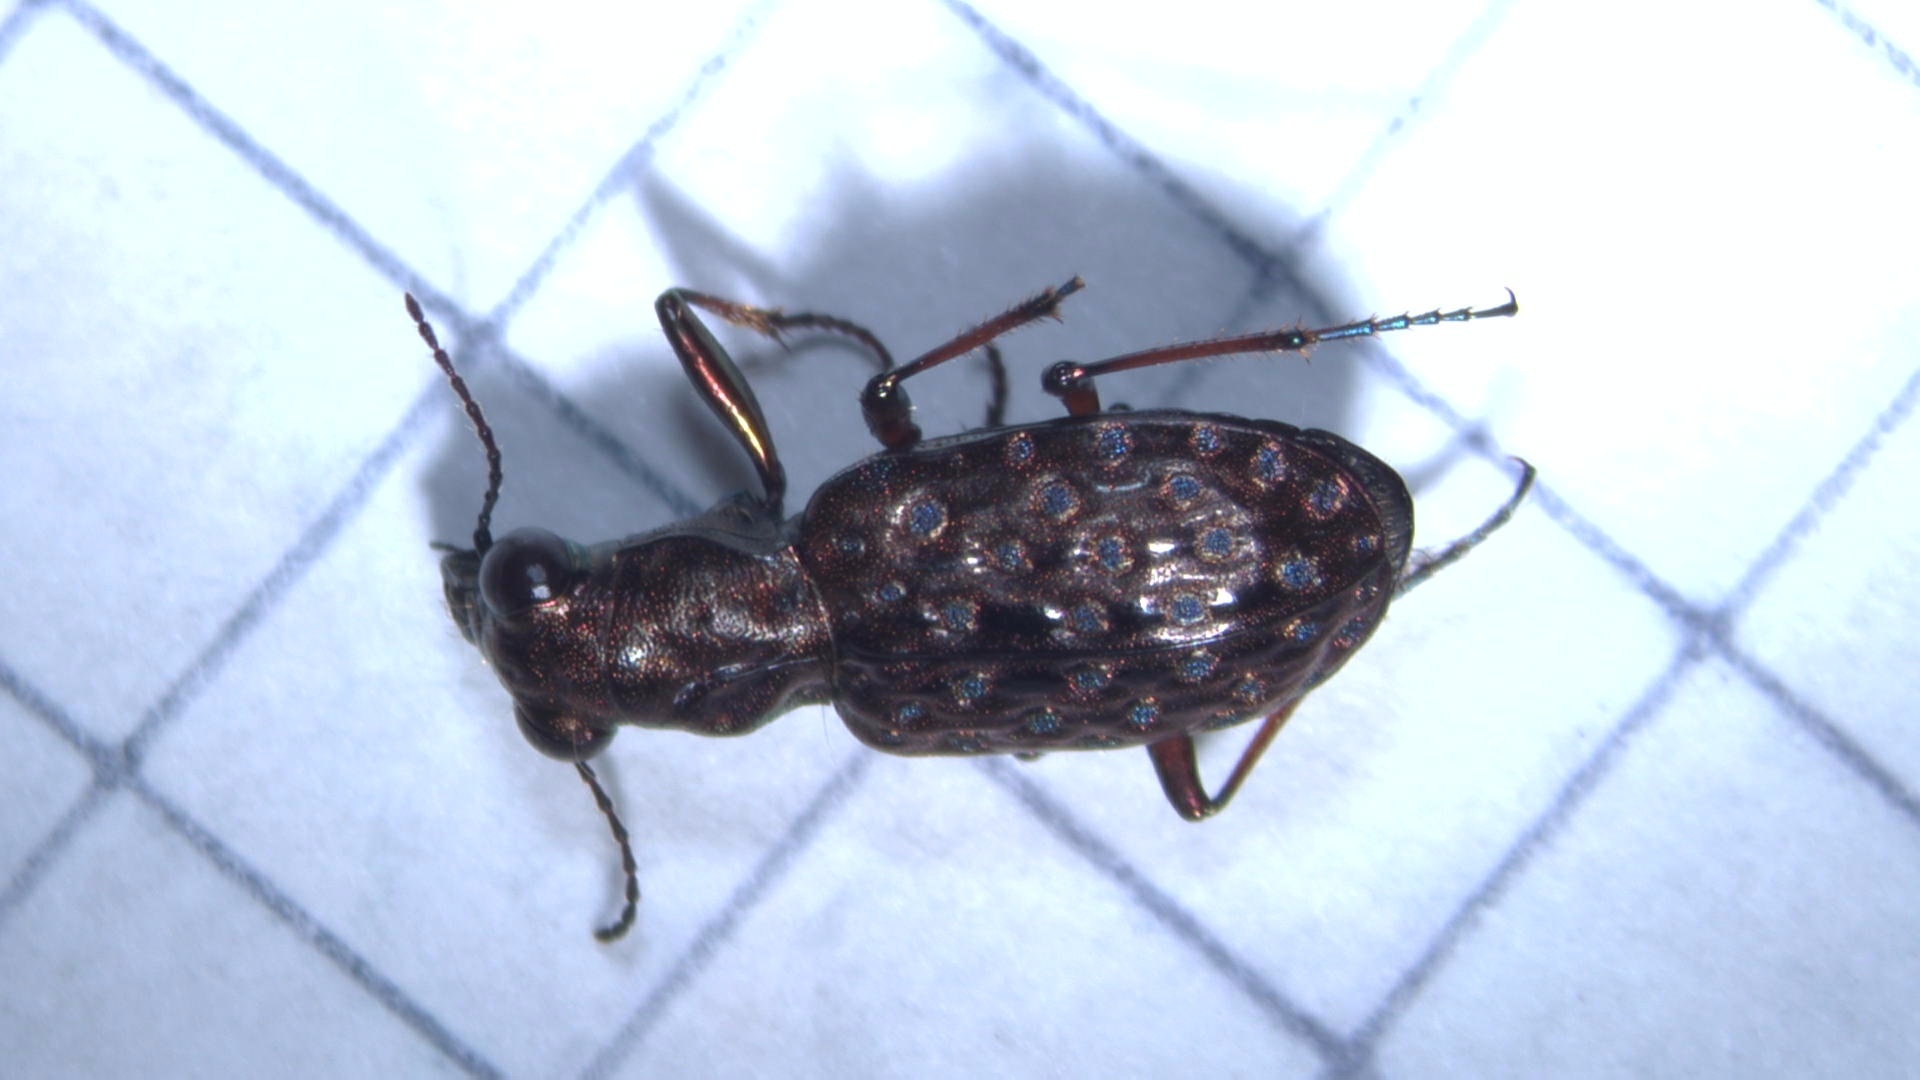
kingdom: Animalia
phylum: Arthropoda
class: Insecta
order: Coleoptera
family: Carabidae
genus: Elaphrus
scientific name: Elaphrus cupreus
